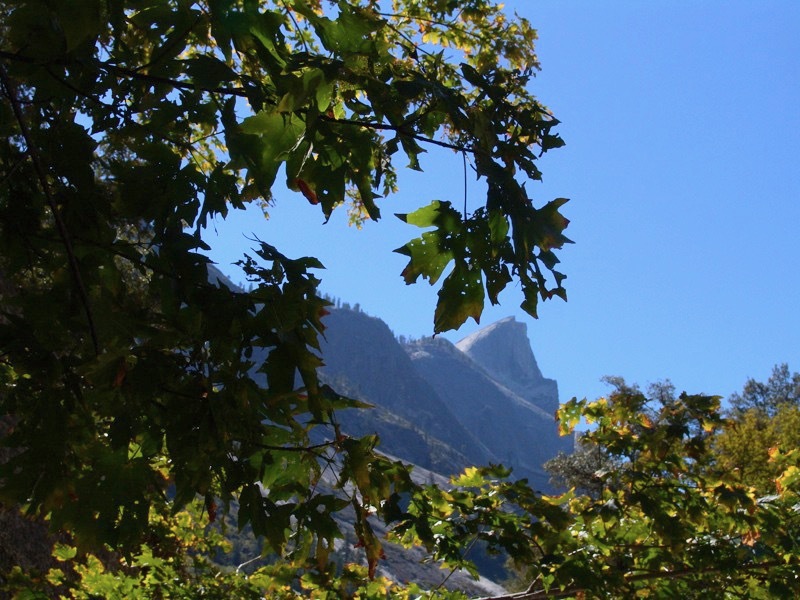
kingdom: Plantae
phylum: Tracheophyta
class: Magnoliopsida
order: Fagales
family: Fagaceae
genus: Quercus
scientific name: Quercus kelloggii
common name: California black oak
